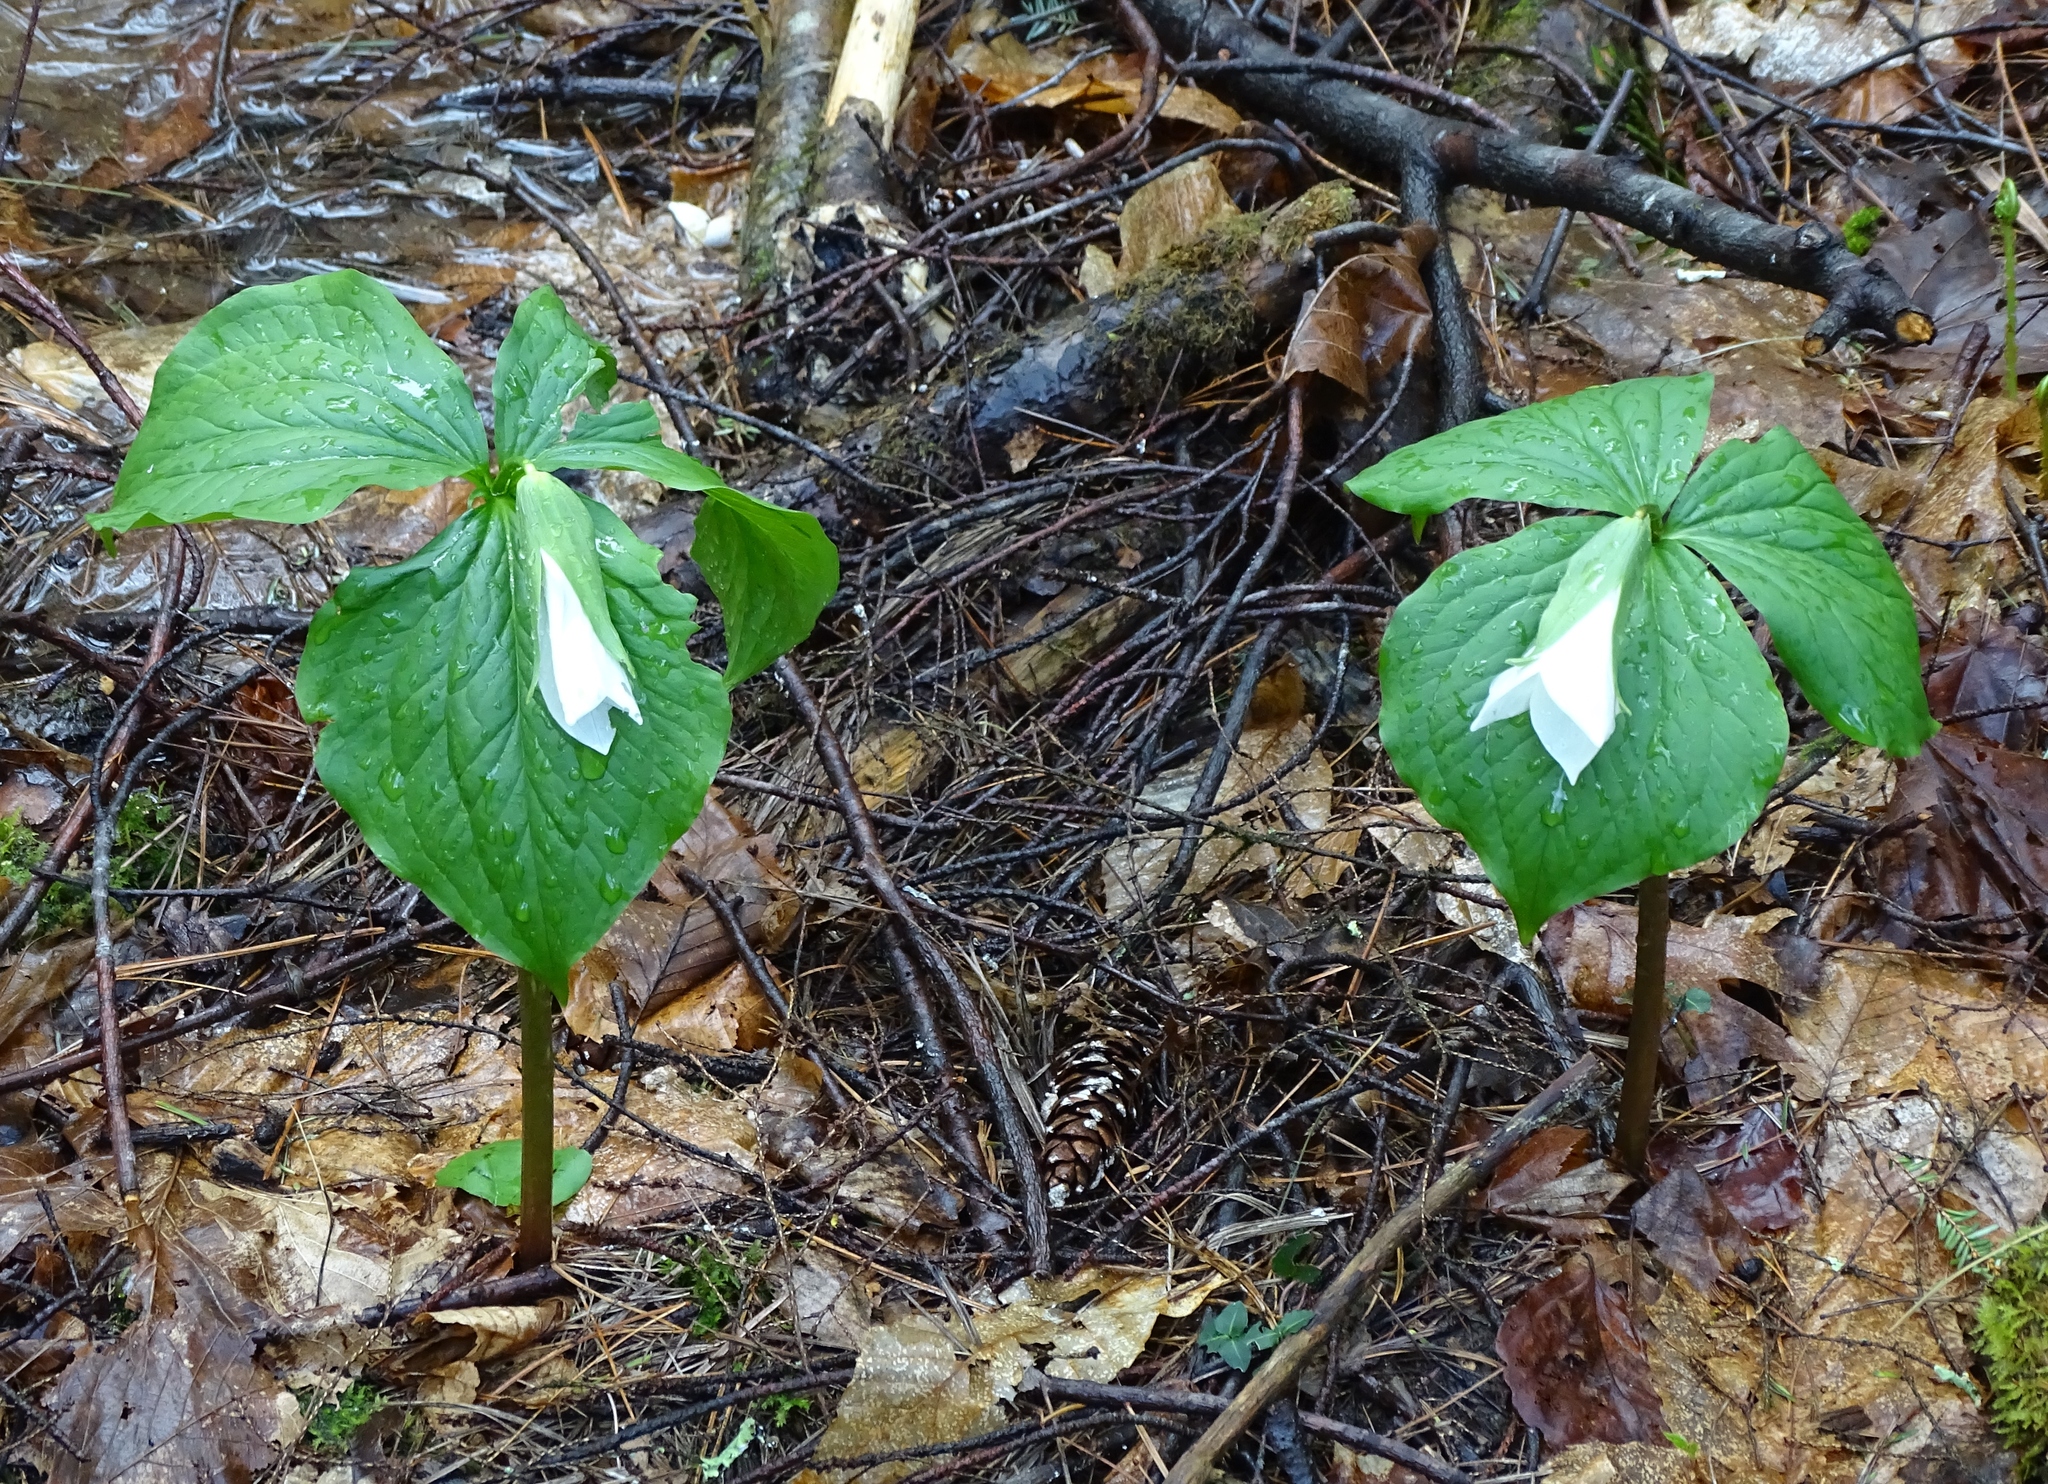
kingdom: Plantae
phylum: Tracheophyta
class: Liliopsida
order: Liliales
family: Melanthiaceae
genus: Trillium
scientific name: Trillium grandiflorum
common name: Great white trillium
